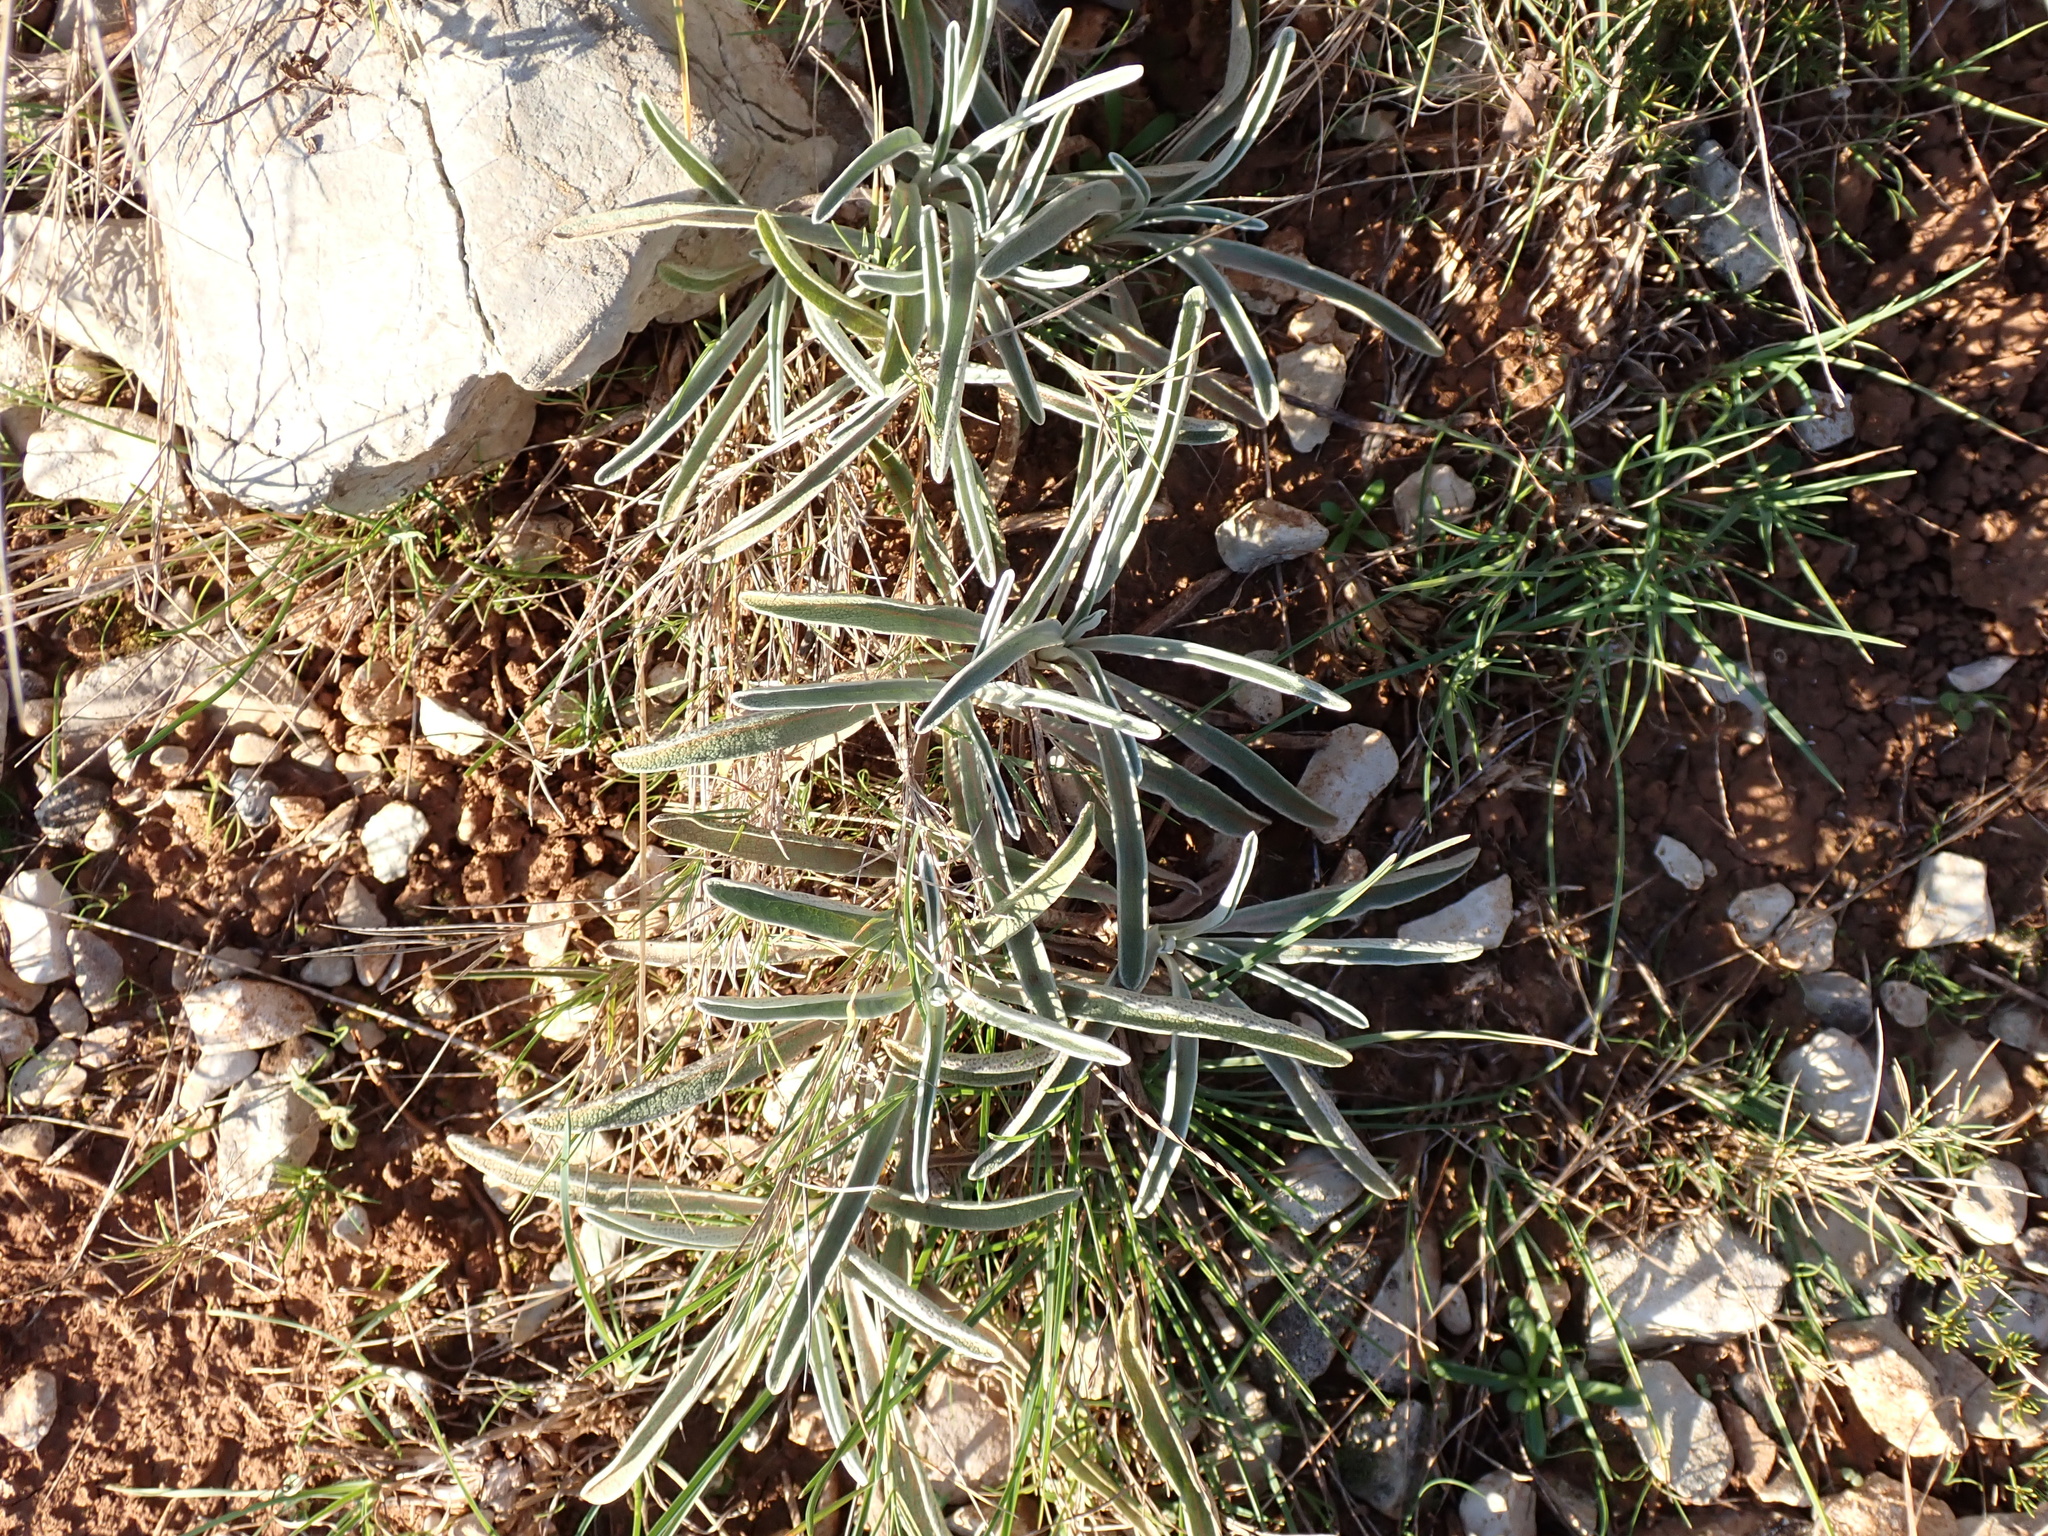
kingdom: Plantae
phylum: Tracheophyta
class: Magnoliopsida
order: Lamiales
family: Lamiaceae
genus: Phlomis
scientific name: Phlomis lychnitis
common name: Lampwickplant
